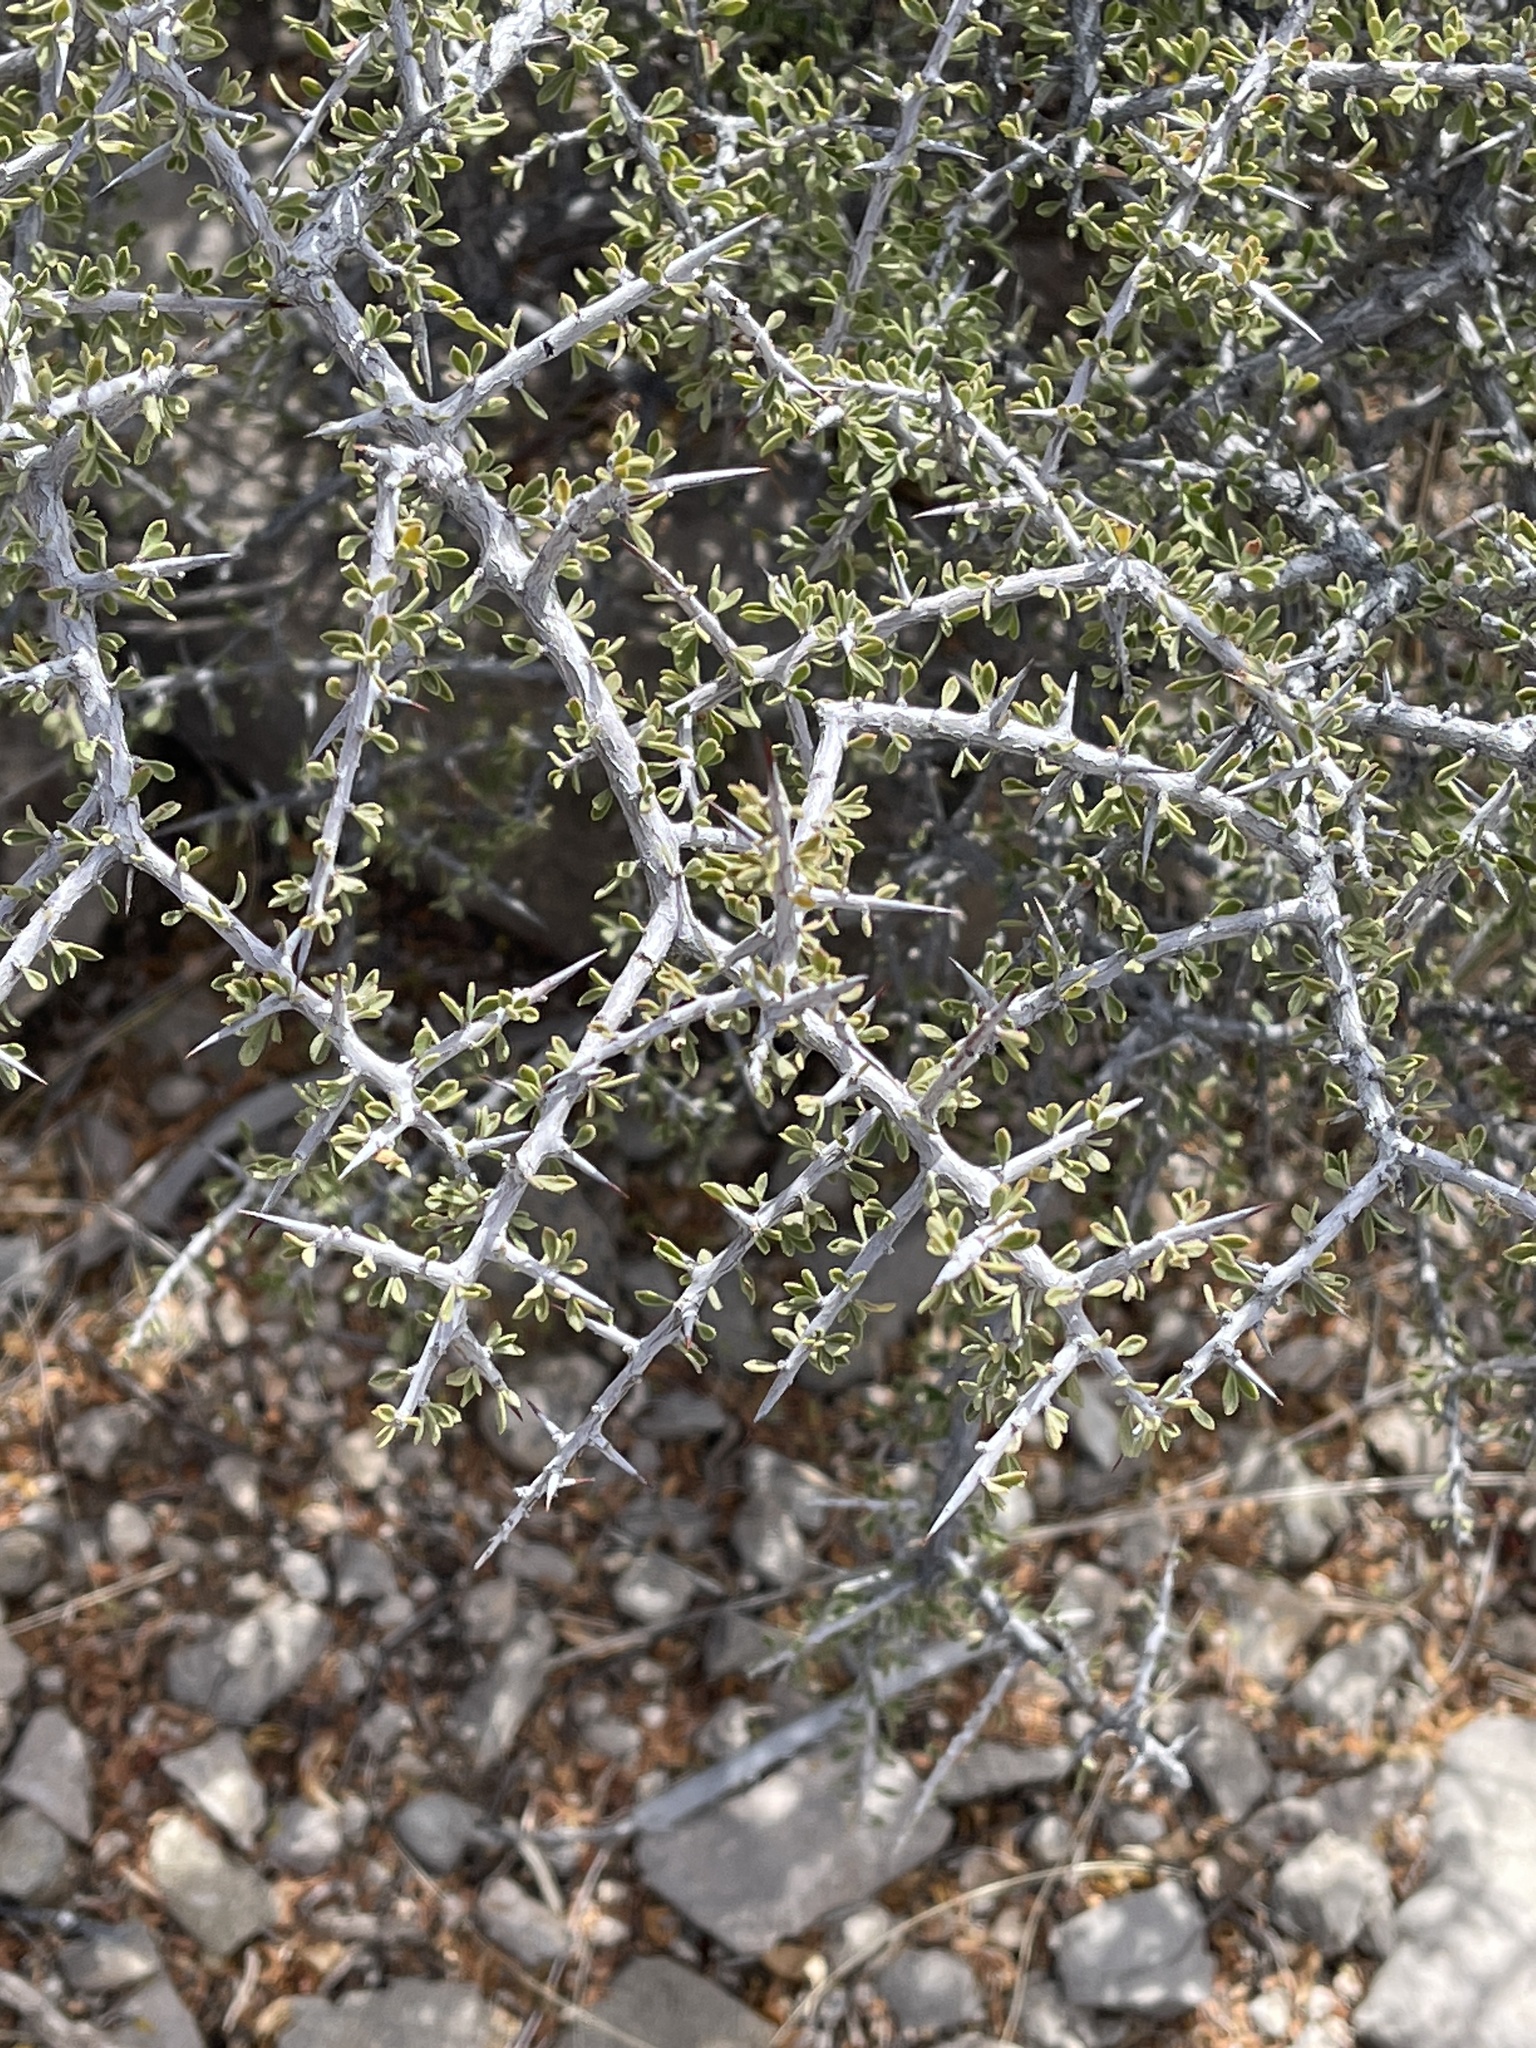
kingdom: Plantae
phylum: Tracheophyta
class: Magnoliopsida
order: Rosales
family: Rhamnaceae
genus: Condalia
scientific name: Condalia warnockii
